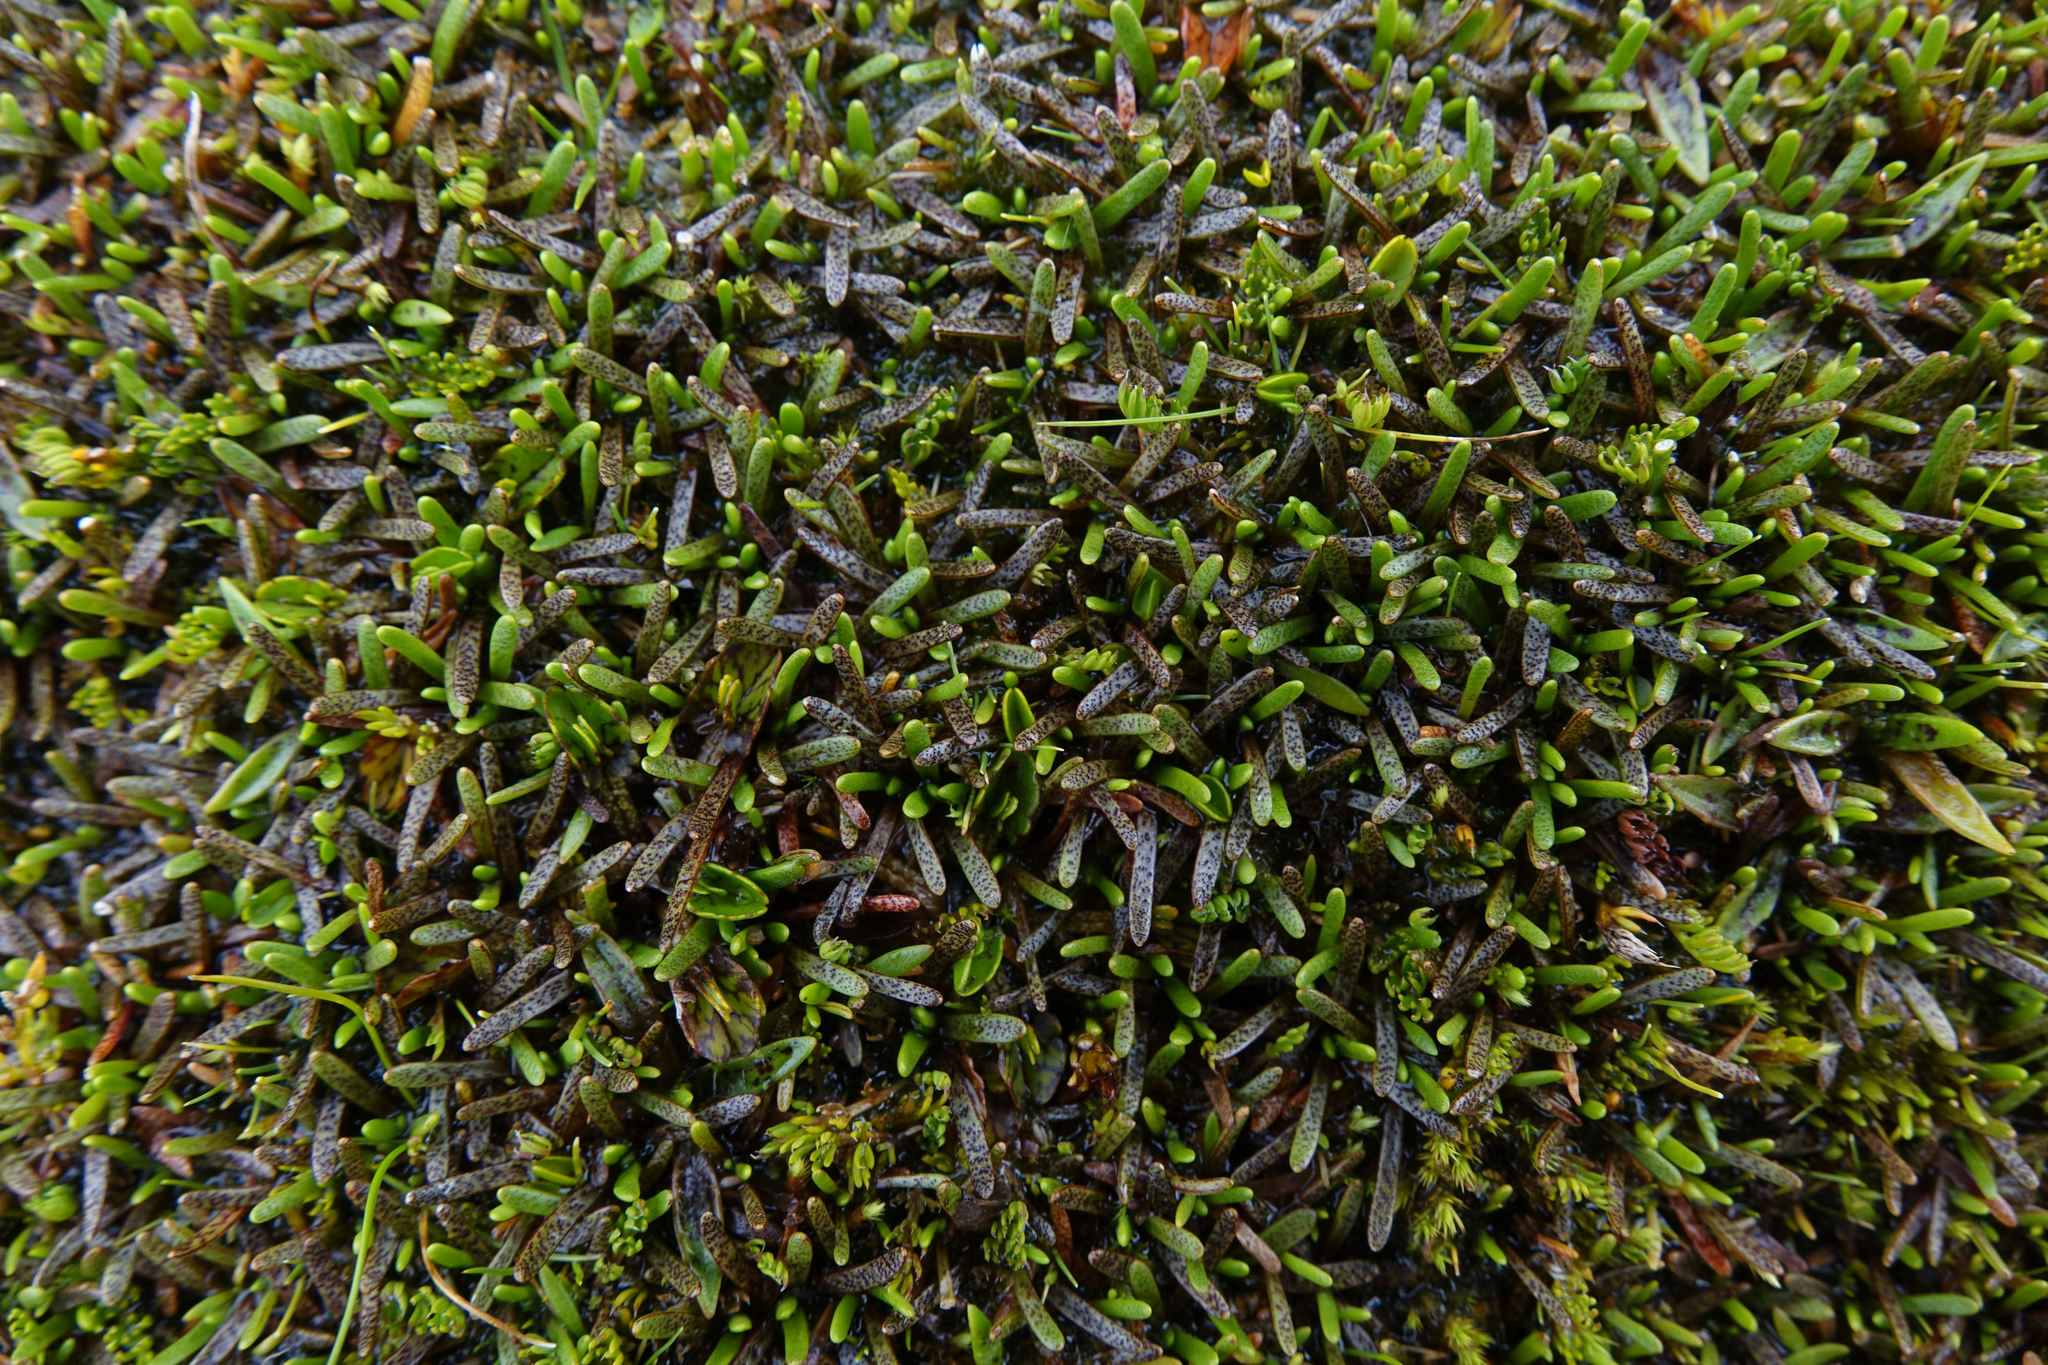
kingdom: Plantae
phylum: Tracheophyta
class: Magnoliopsida
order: Asterales
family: Asteraceae
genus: Abrotanella
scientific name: Abrotanella caespitosa
